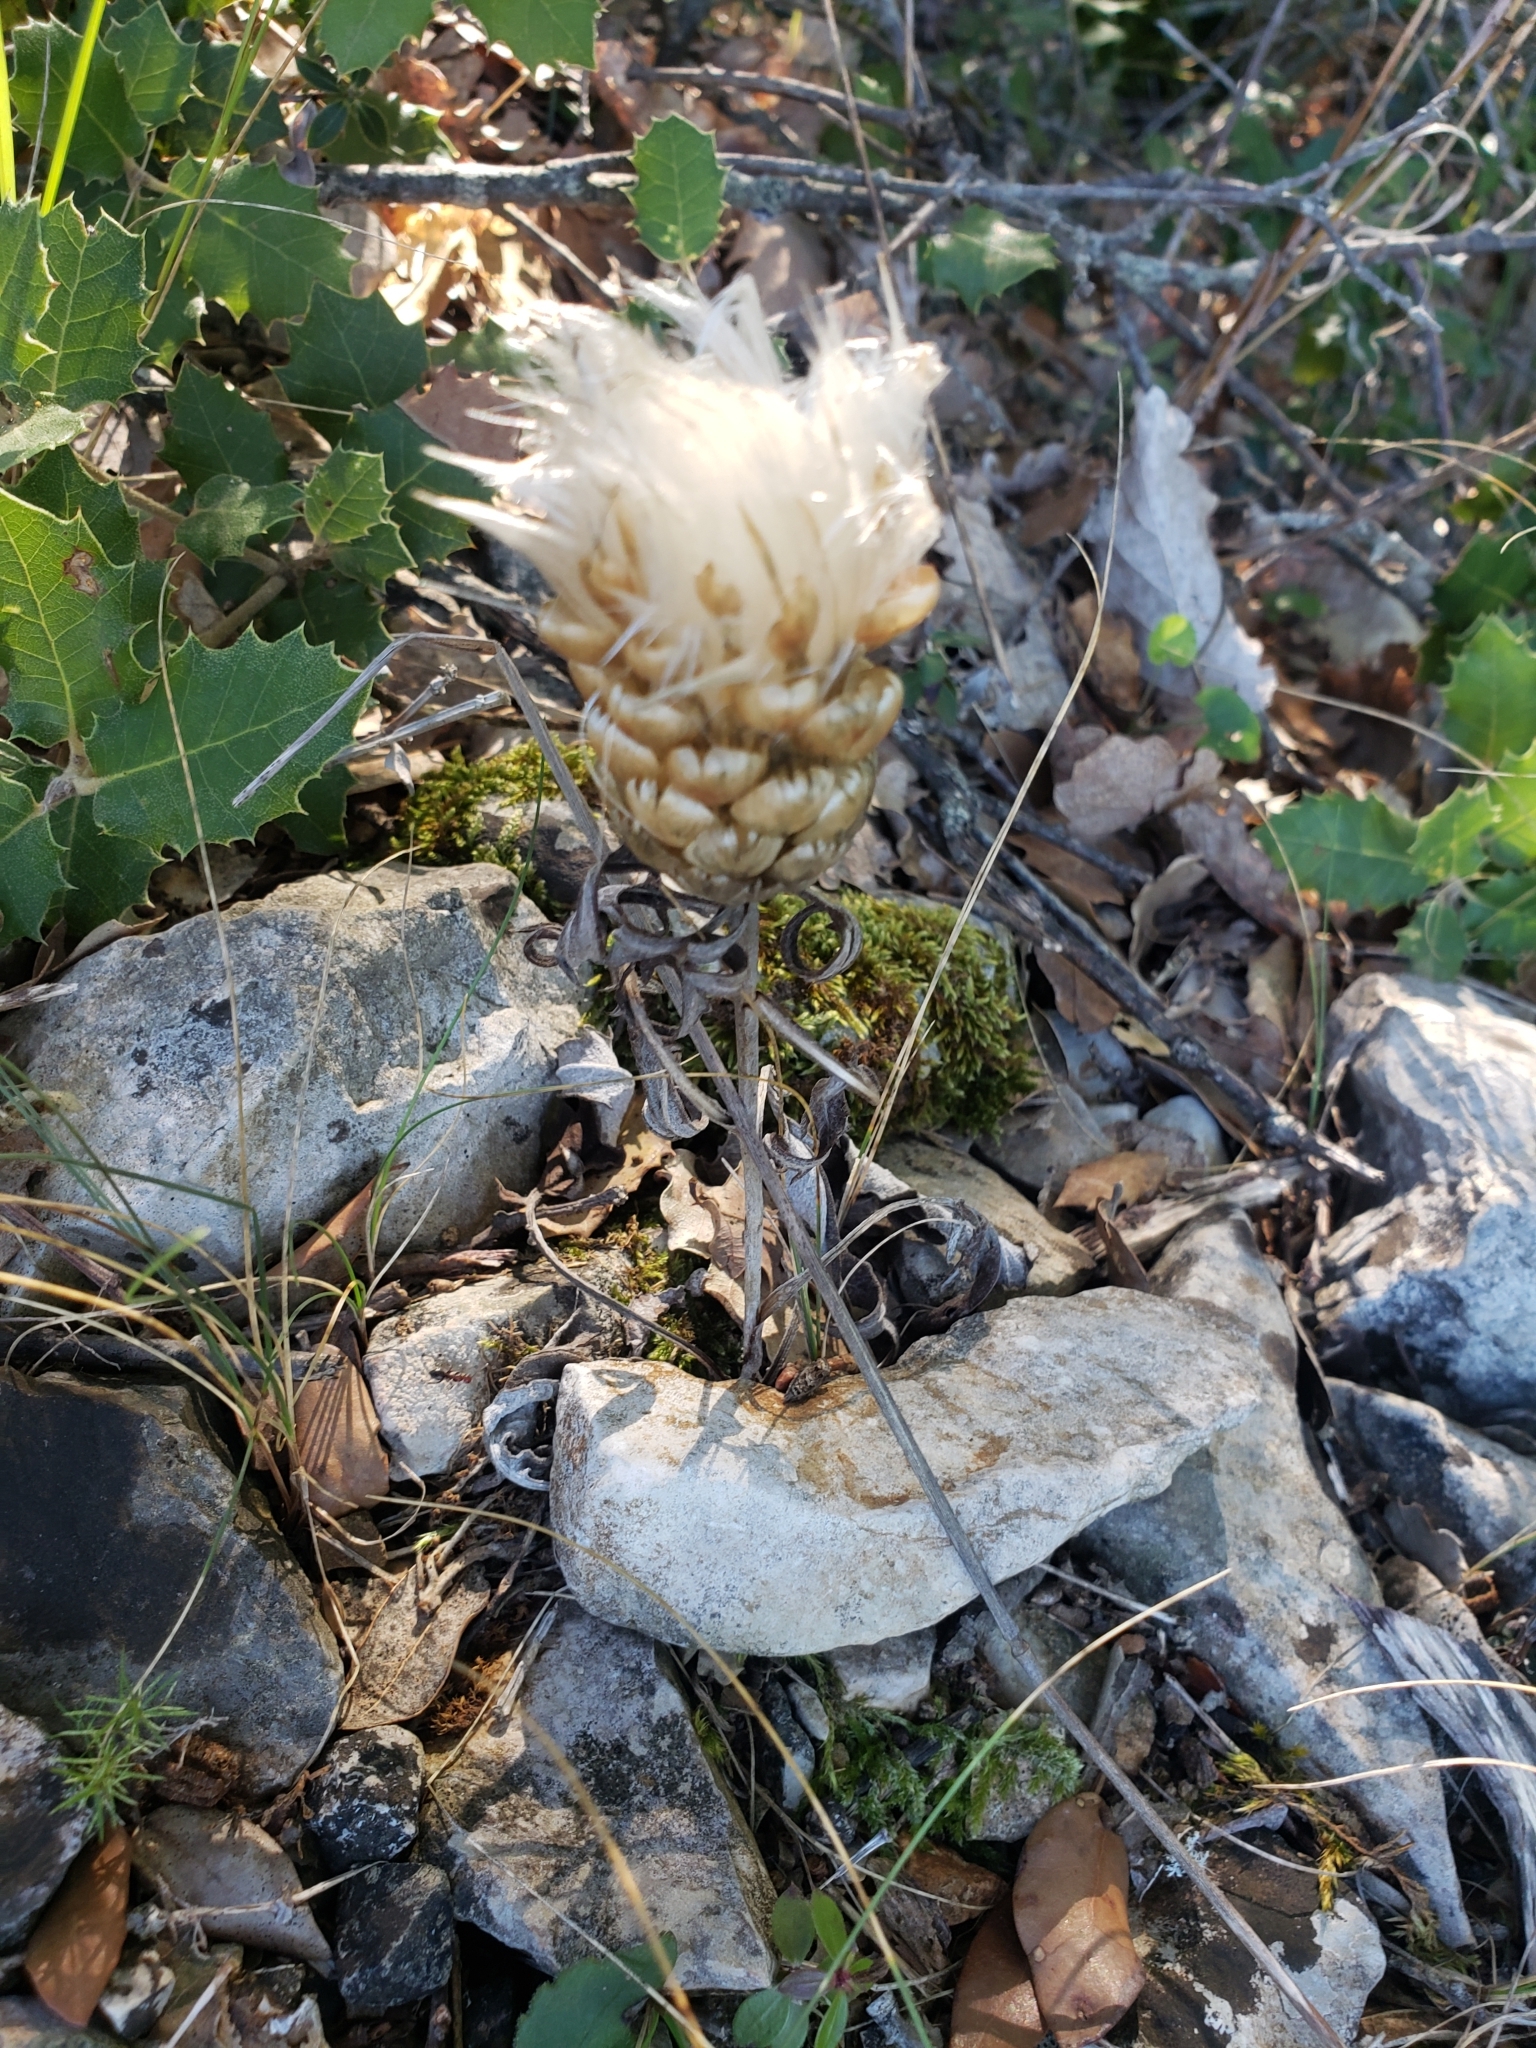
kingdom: Plantae
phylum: Tracheophyta
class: Magnoliopsida
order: Asterales
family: Asteraceae
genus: Leuzea
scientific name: Leuzea conifera
